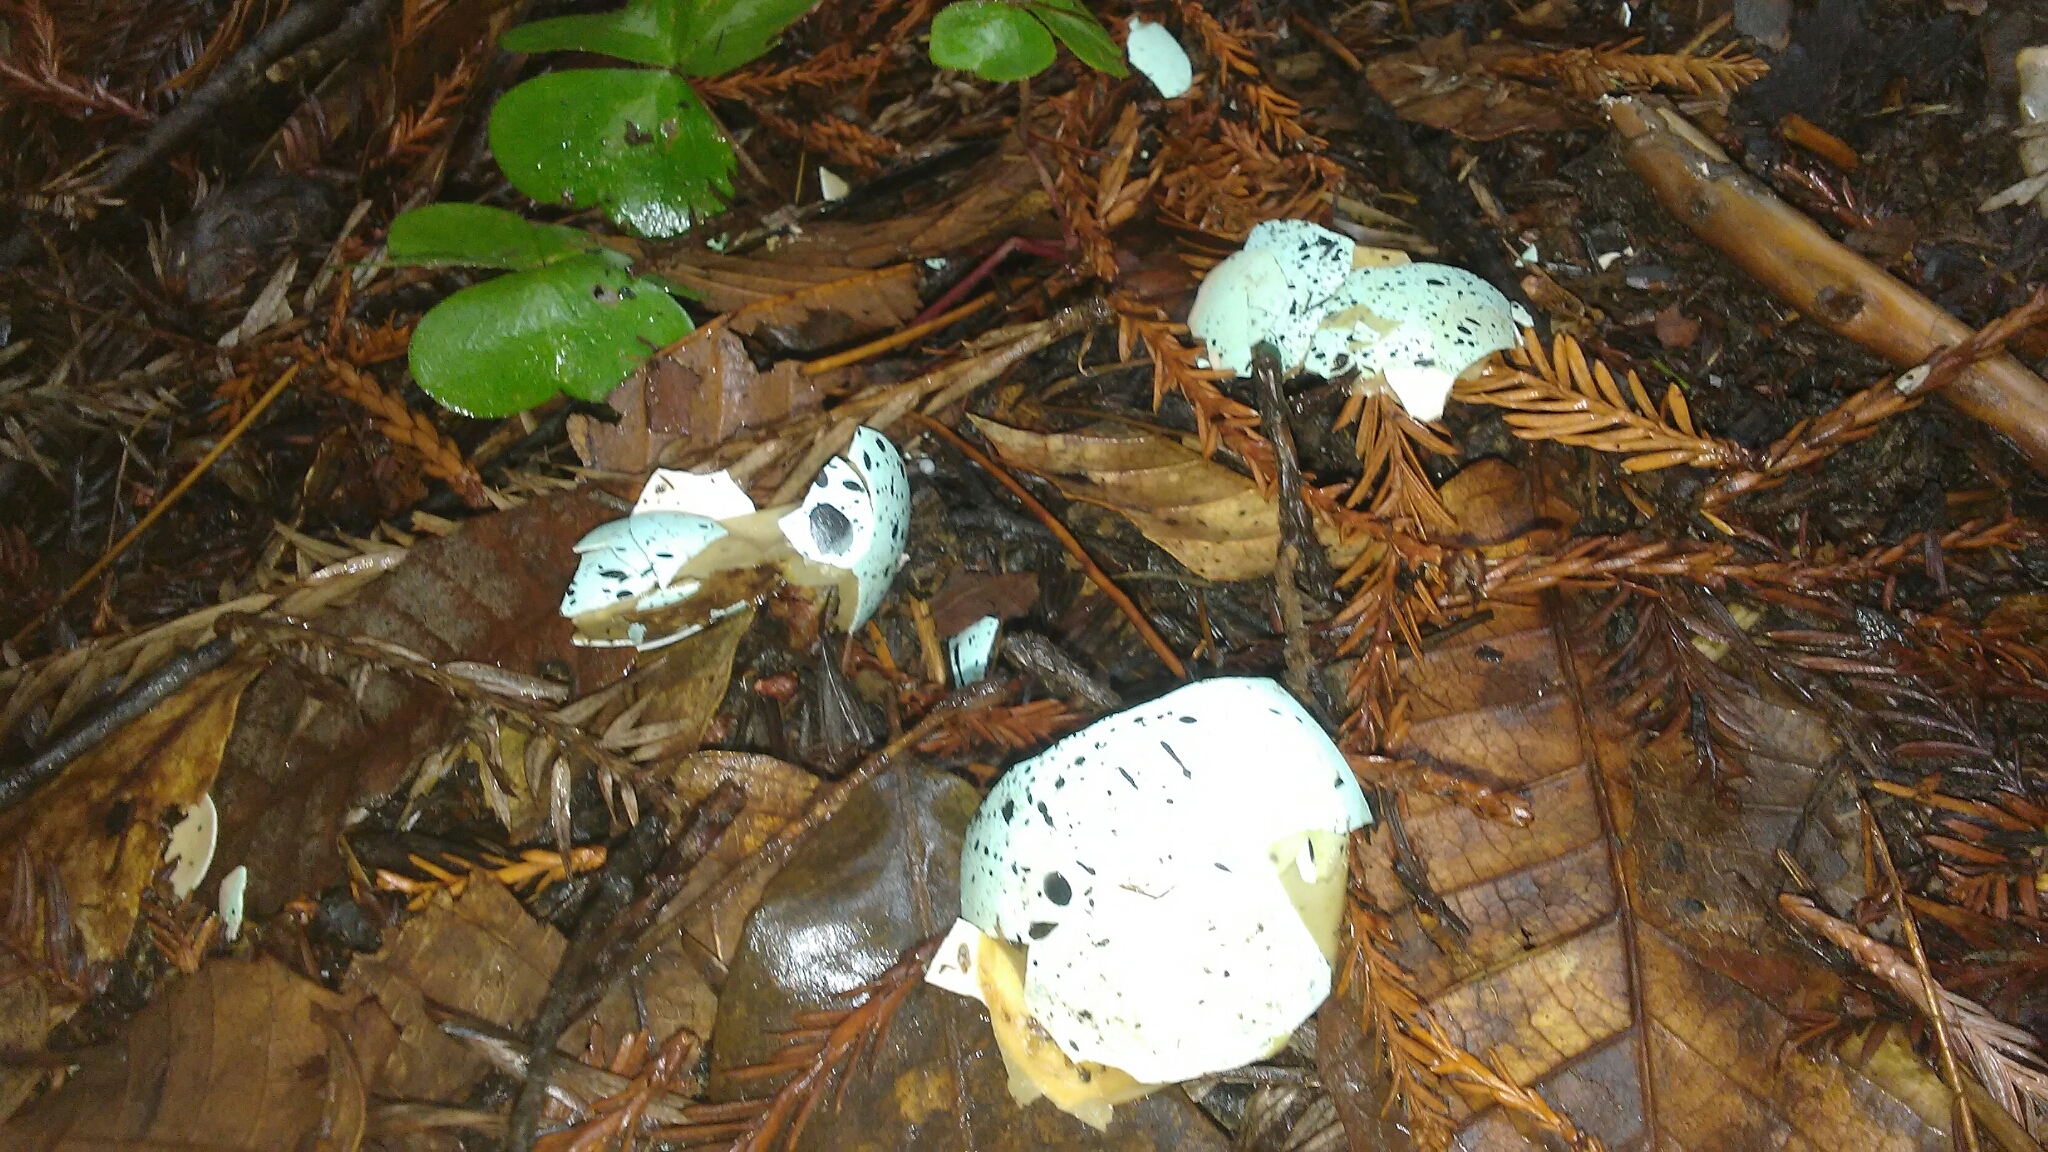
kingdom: Animalia
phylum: Chordata
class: Aves
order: Charadriiformes
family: Alcidae
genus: Brachyramphus
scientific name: Brachyramphus marmoratus
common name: Marbled murrelet
